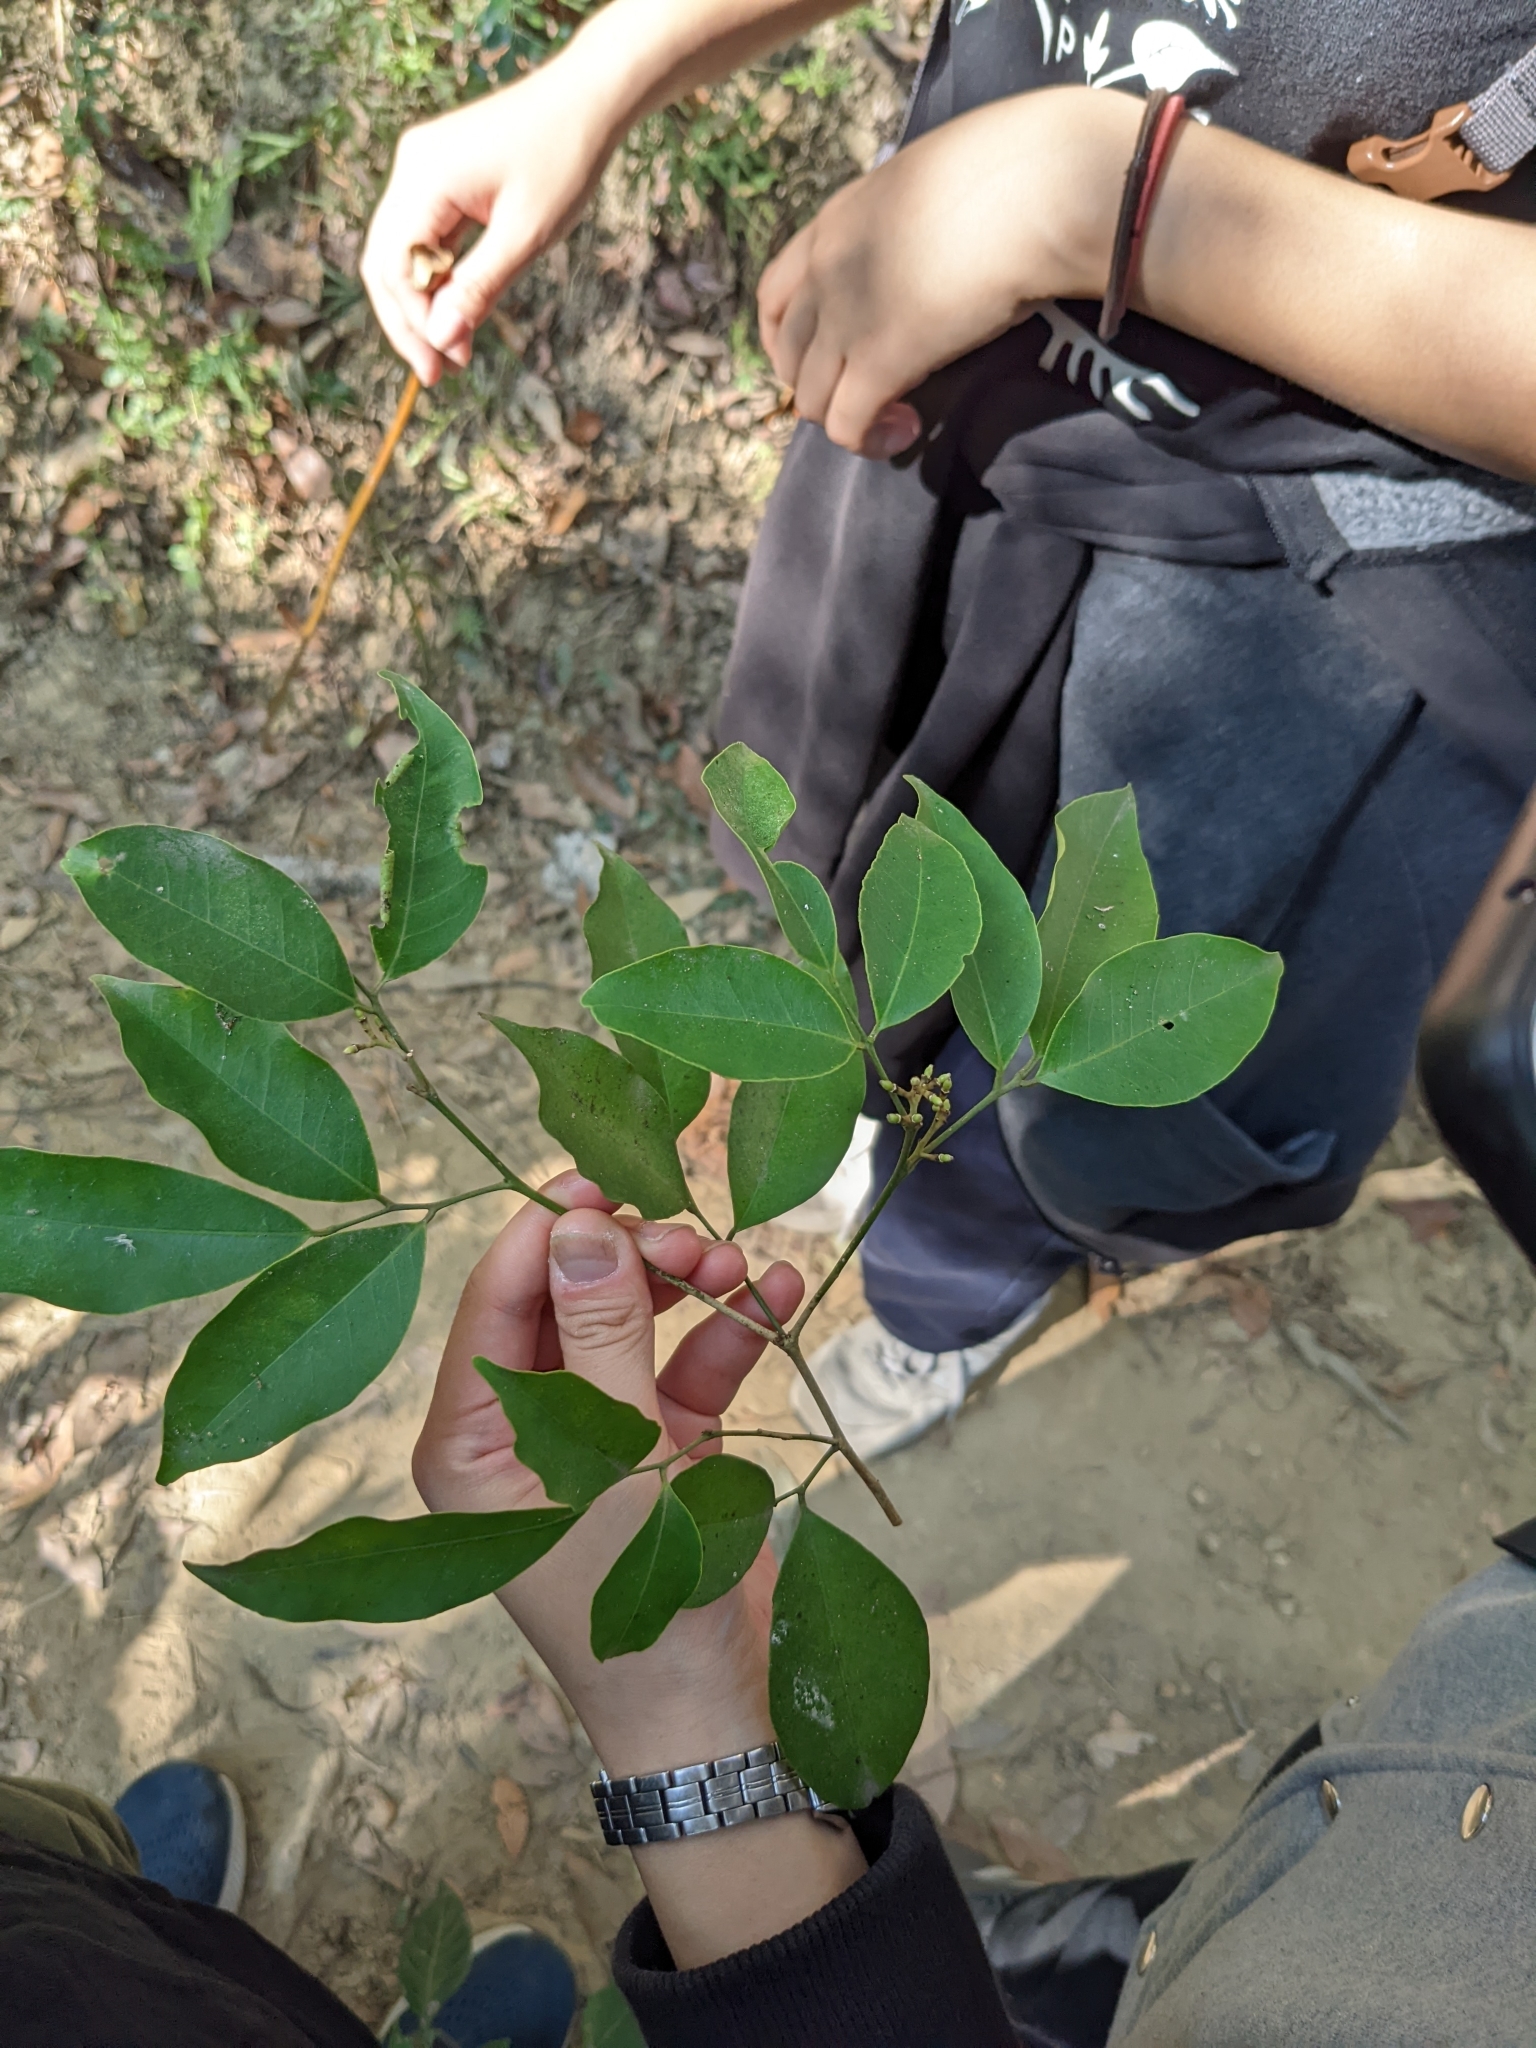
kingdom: Plantae
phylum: Tracheophyta
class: Magnoliopsida
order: Sapindales
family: Rutaceae
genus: Glycosmis
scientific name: Glycosmis parviflora
